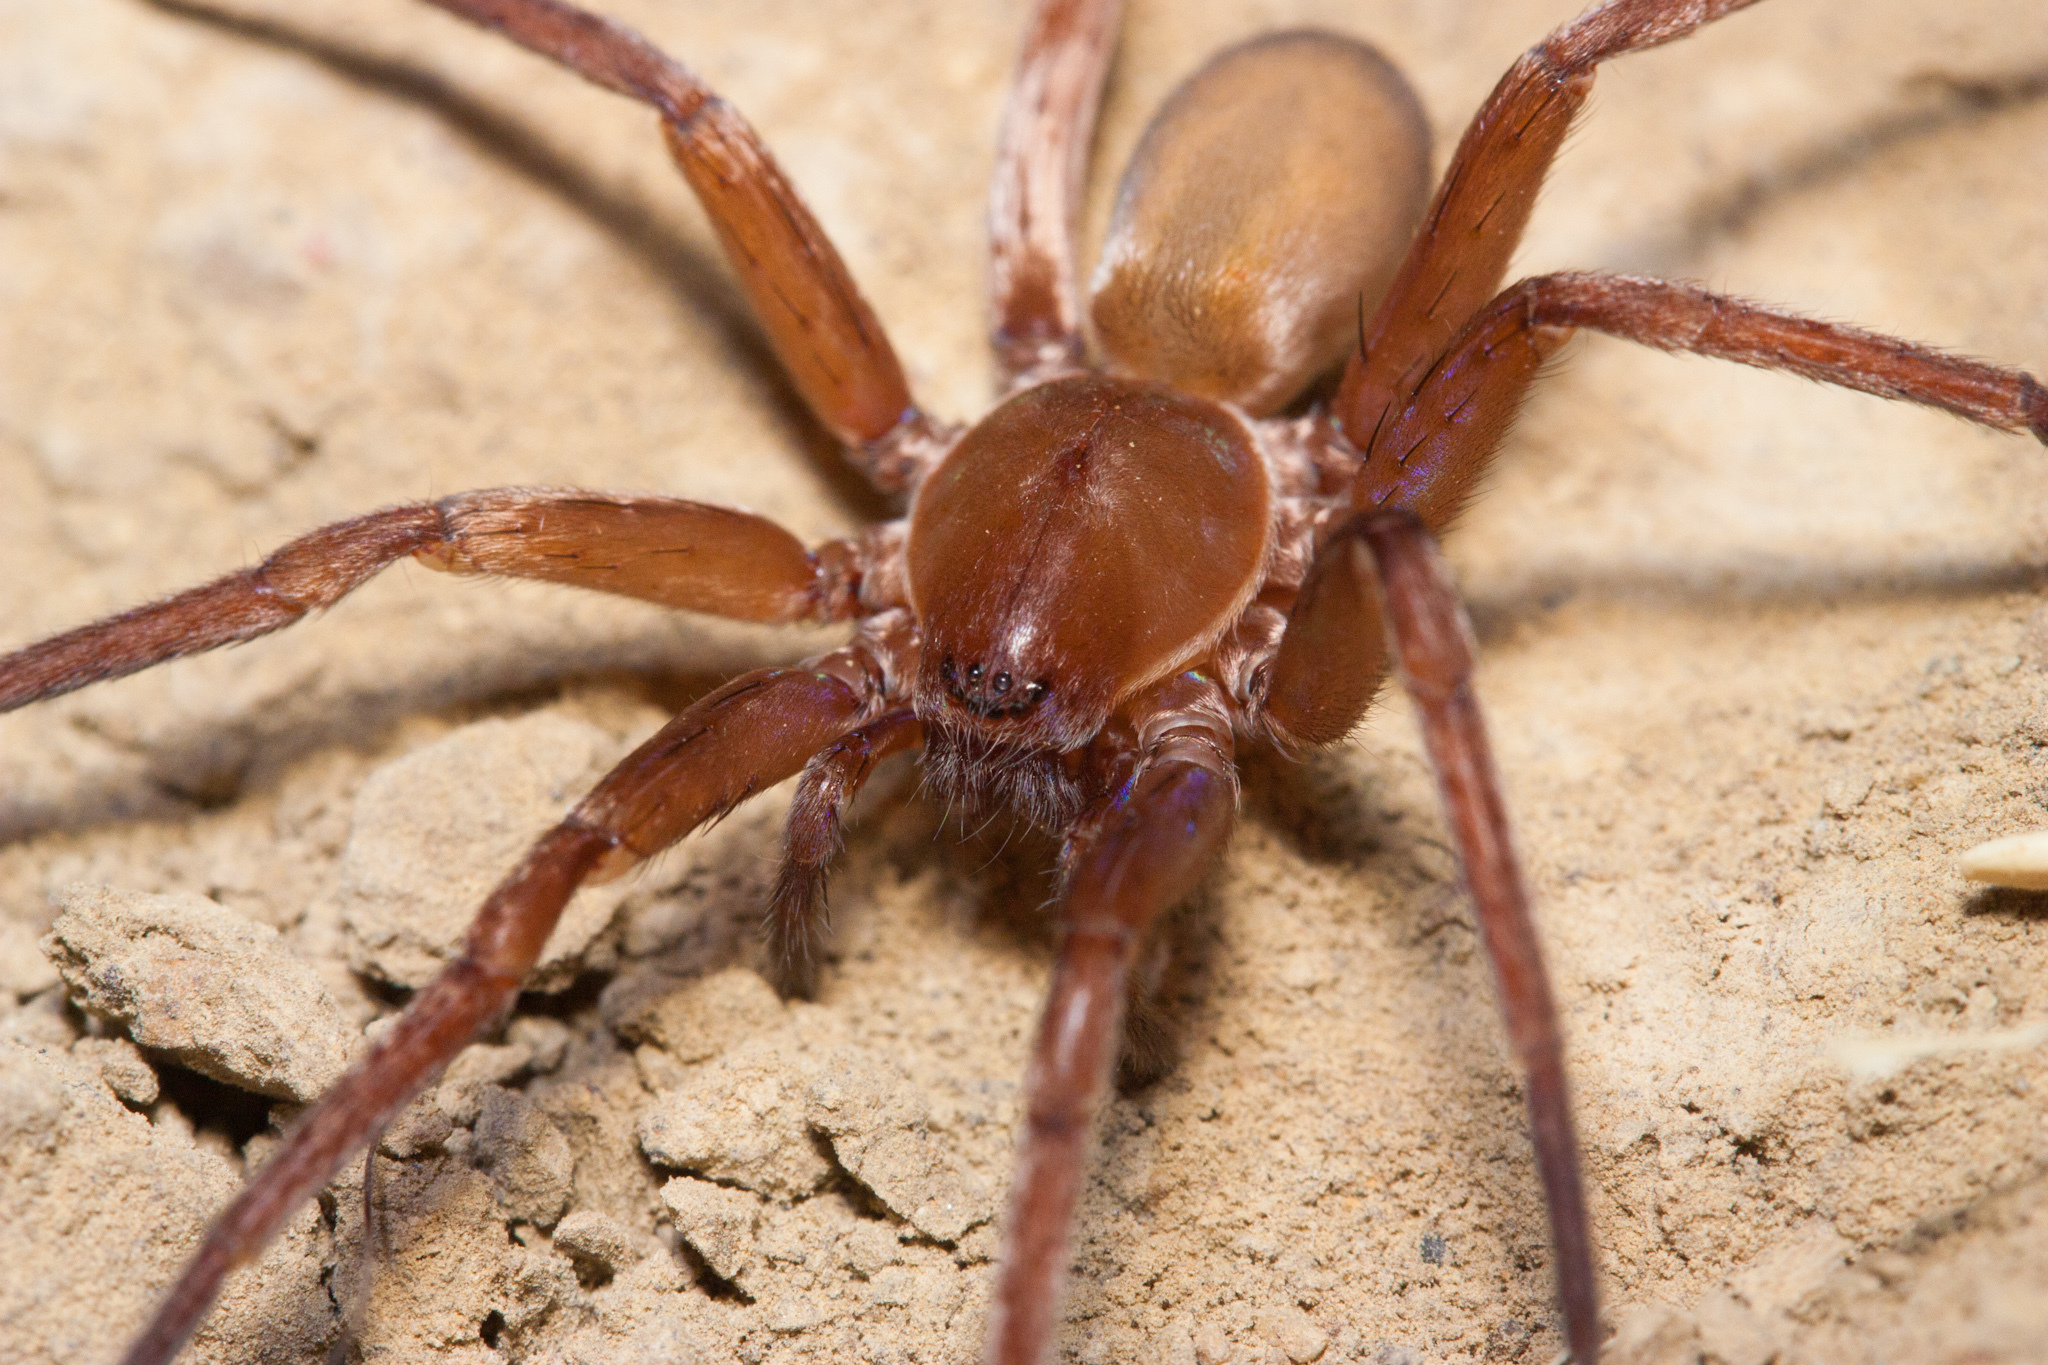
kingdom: Animalia
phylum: Arthropoda
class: Arachnida
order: Araneae
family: Zoropsidae
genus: Titiotus
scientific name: Titiotus
